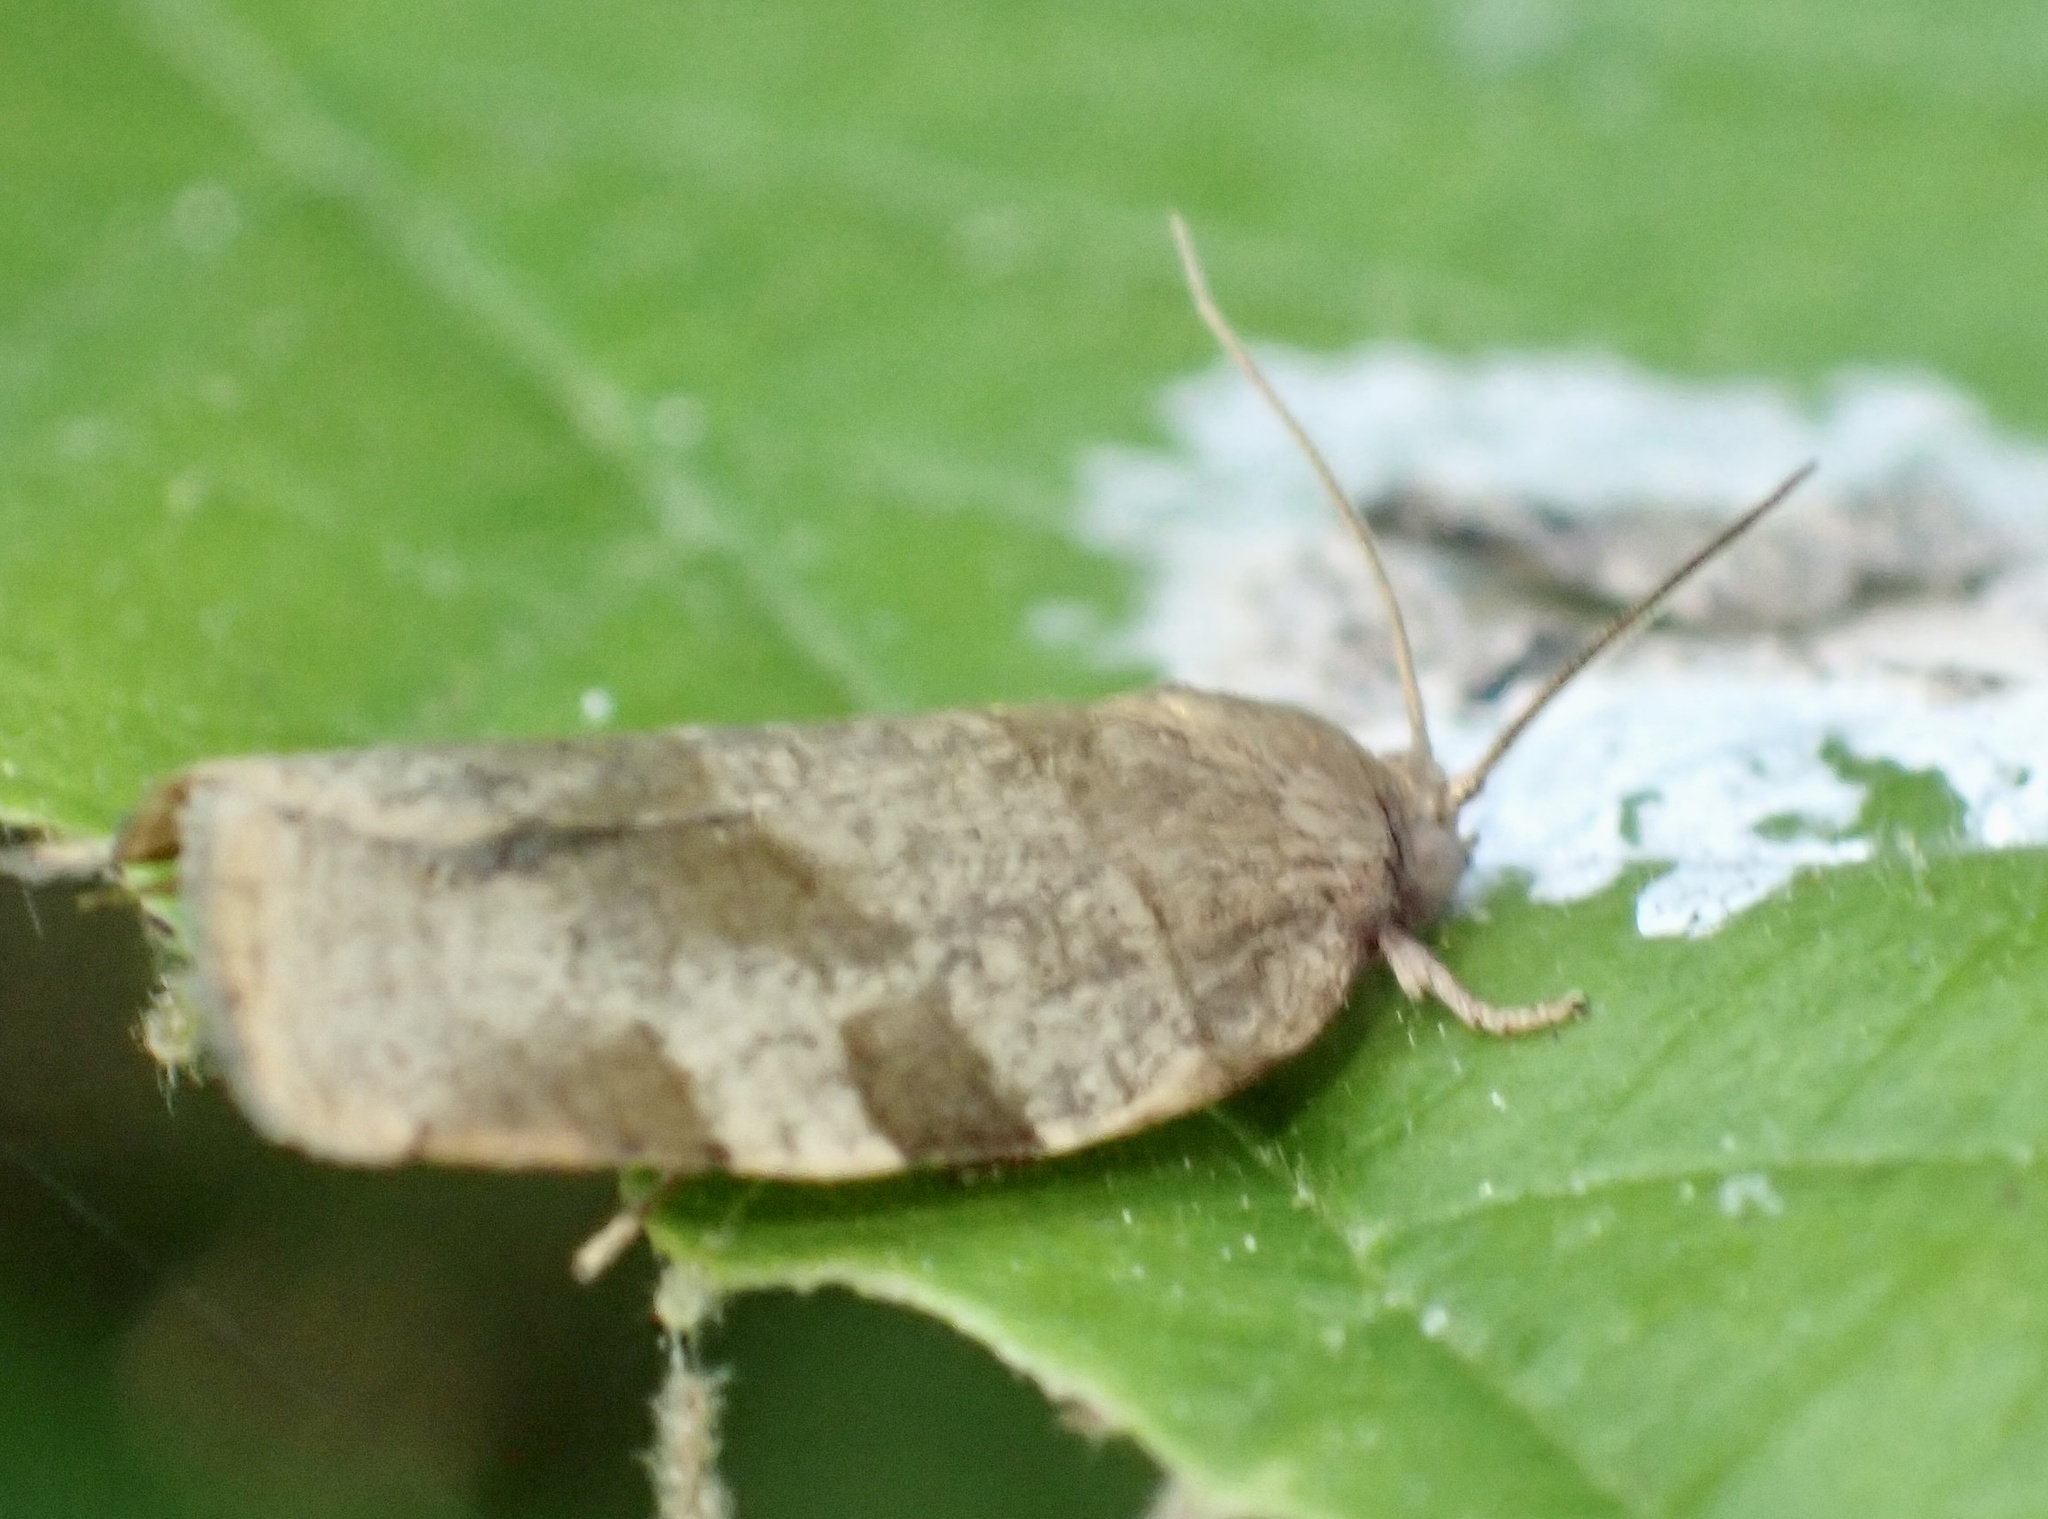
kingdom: Animalia
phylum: Arthropoda
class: Insecta
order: Lepidoptera
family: Tortricidae
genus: Choristoneura
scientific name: Choristoneura hebenstreitella
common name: Great twist
